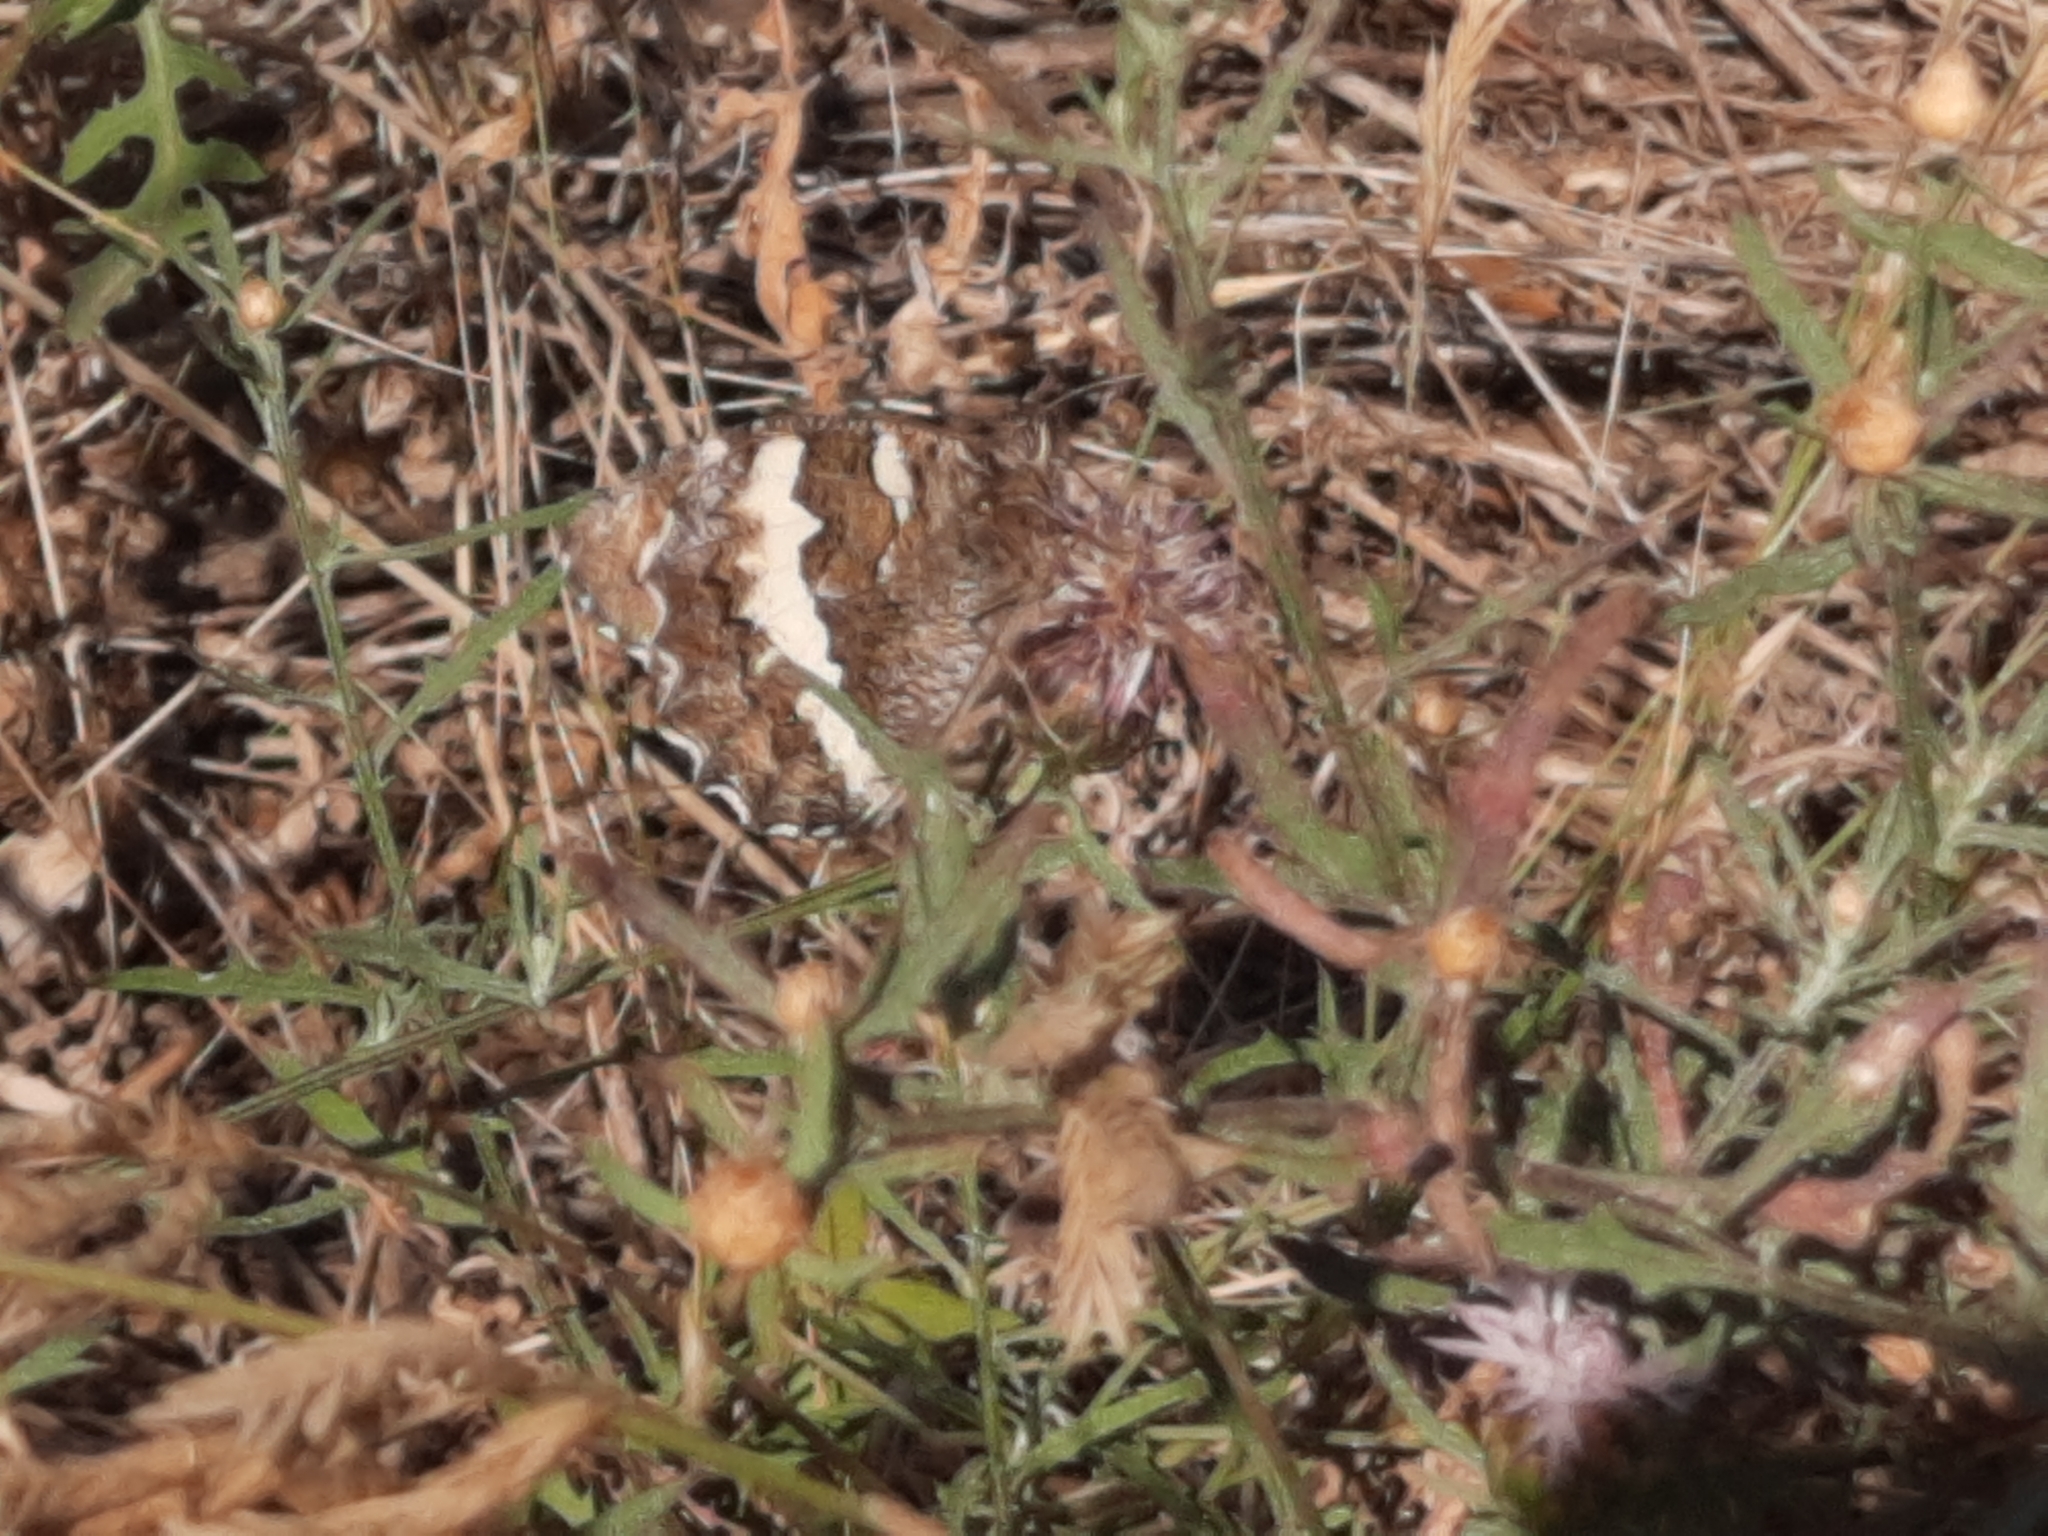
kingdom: Animalia
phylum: Arthropoda
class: Insecta
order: Lepidoptera
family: Lycaenidae
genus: Loweia
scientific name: Loweia tityrus
